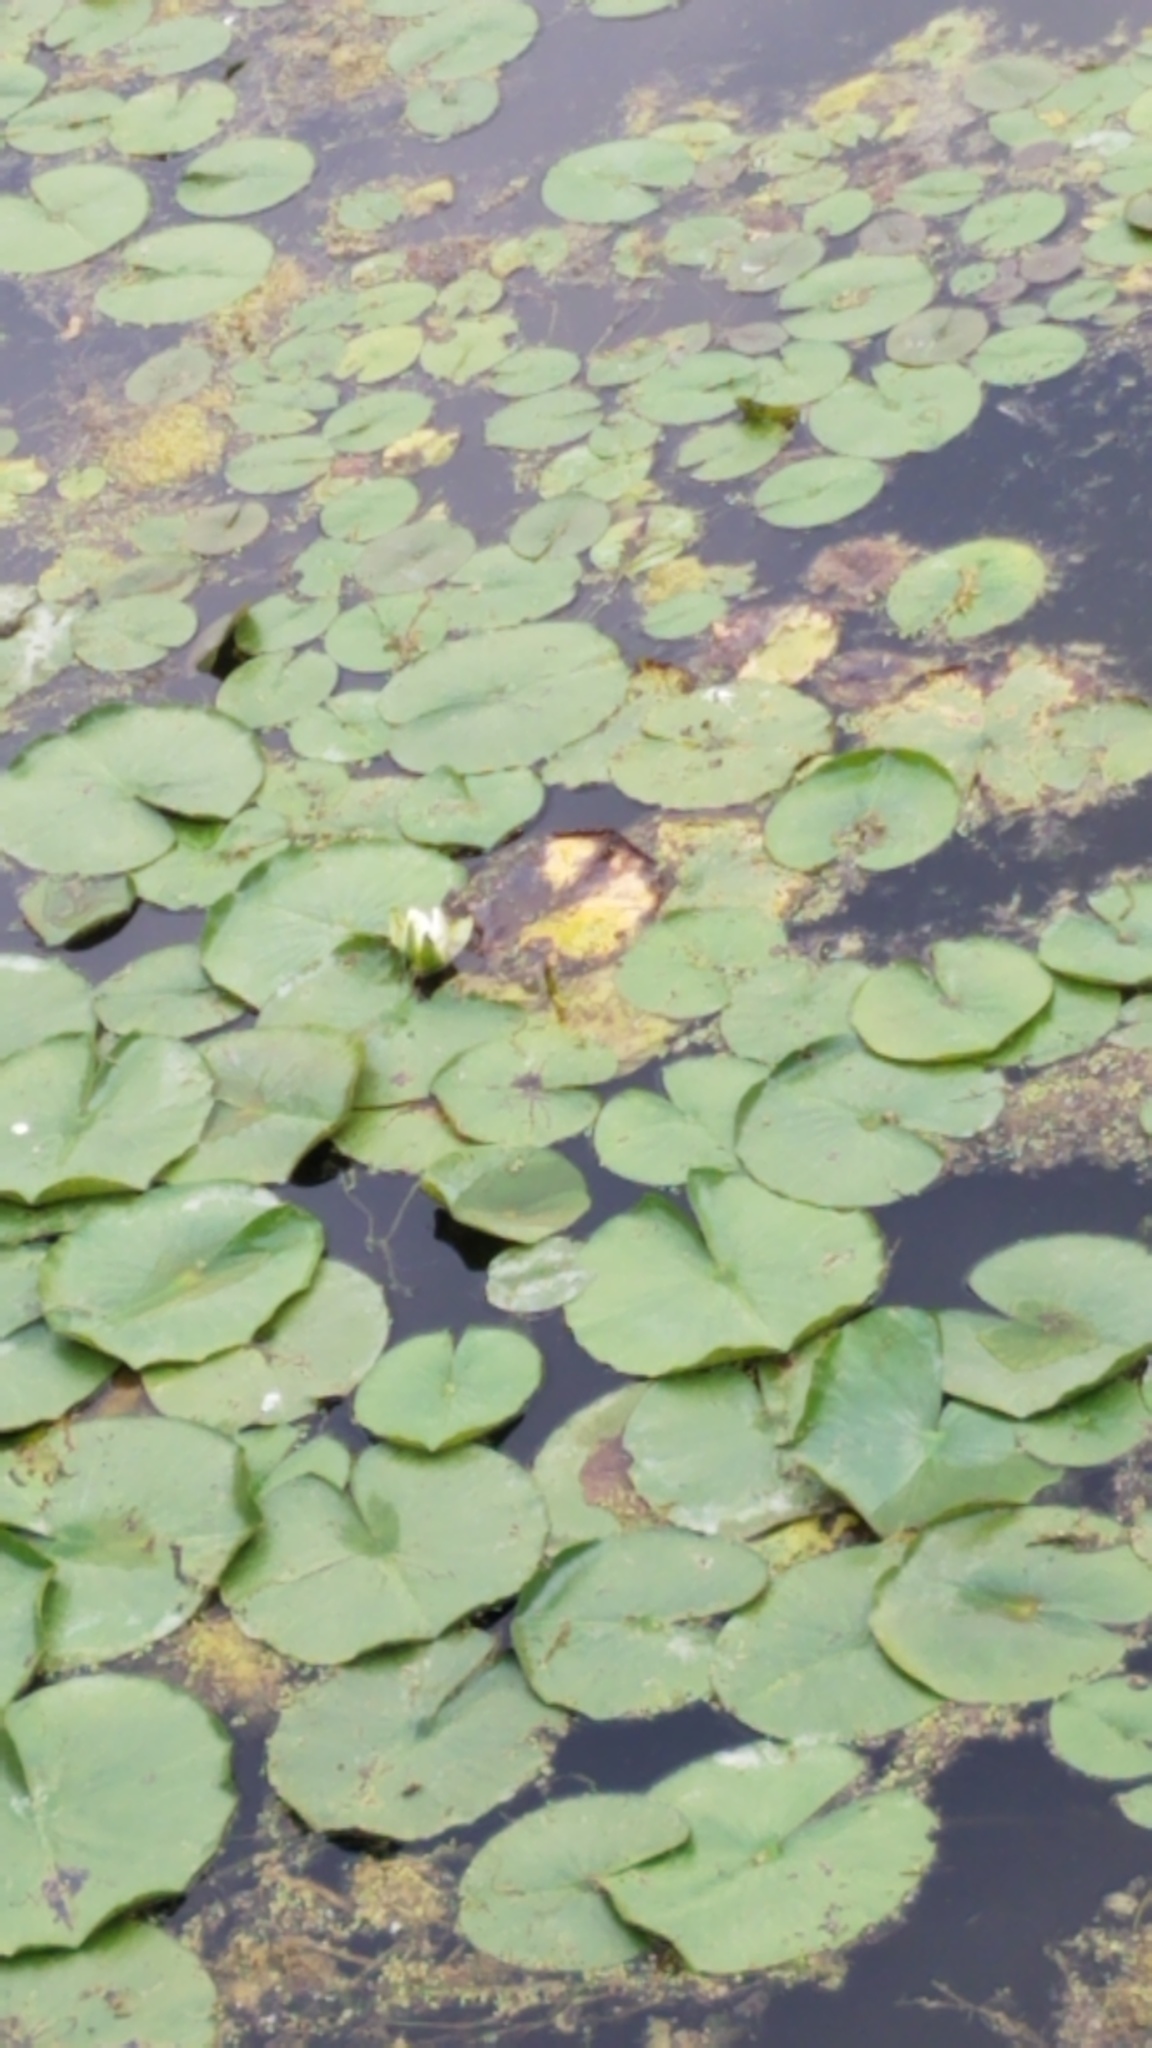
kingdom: Plantae
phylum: Tracheophyta
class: Magnoliopsida
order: Nymphaeales
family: Nymphaeaceae
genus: Nymphaea
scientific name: Nymphaea odorata
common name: Fragrant water-lily
